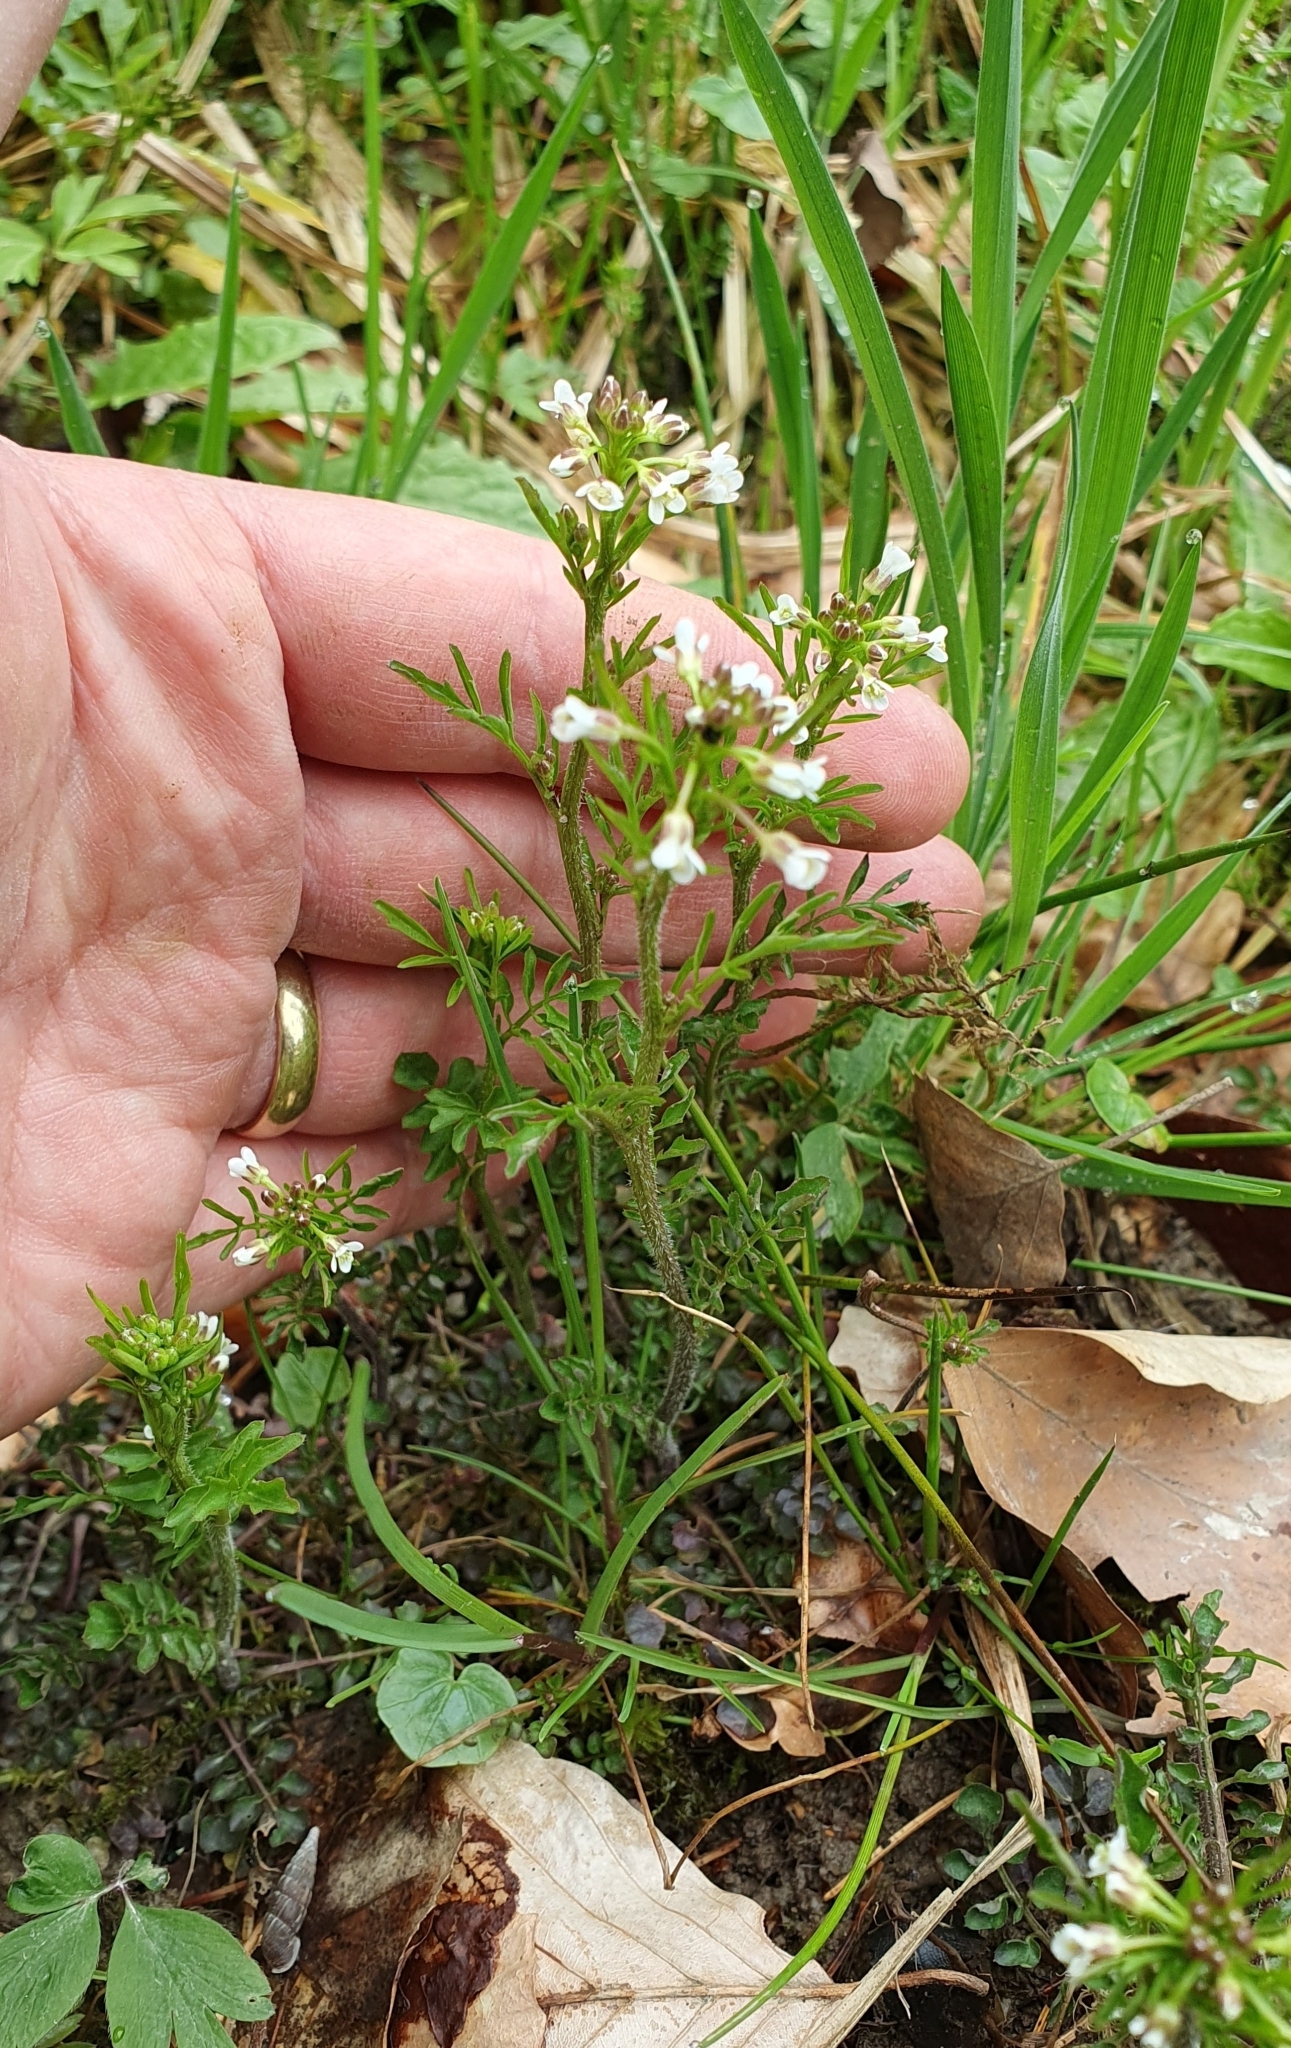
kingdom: Plantae
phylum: Tracheophyta
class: Magnoliopsida
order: Brassicales
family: Brassicaceae
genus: Cardamine
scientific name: Cardamine flexuosa
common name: Woodland bittercress
